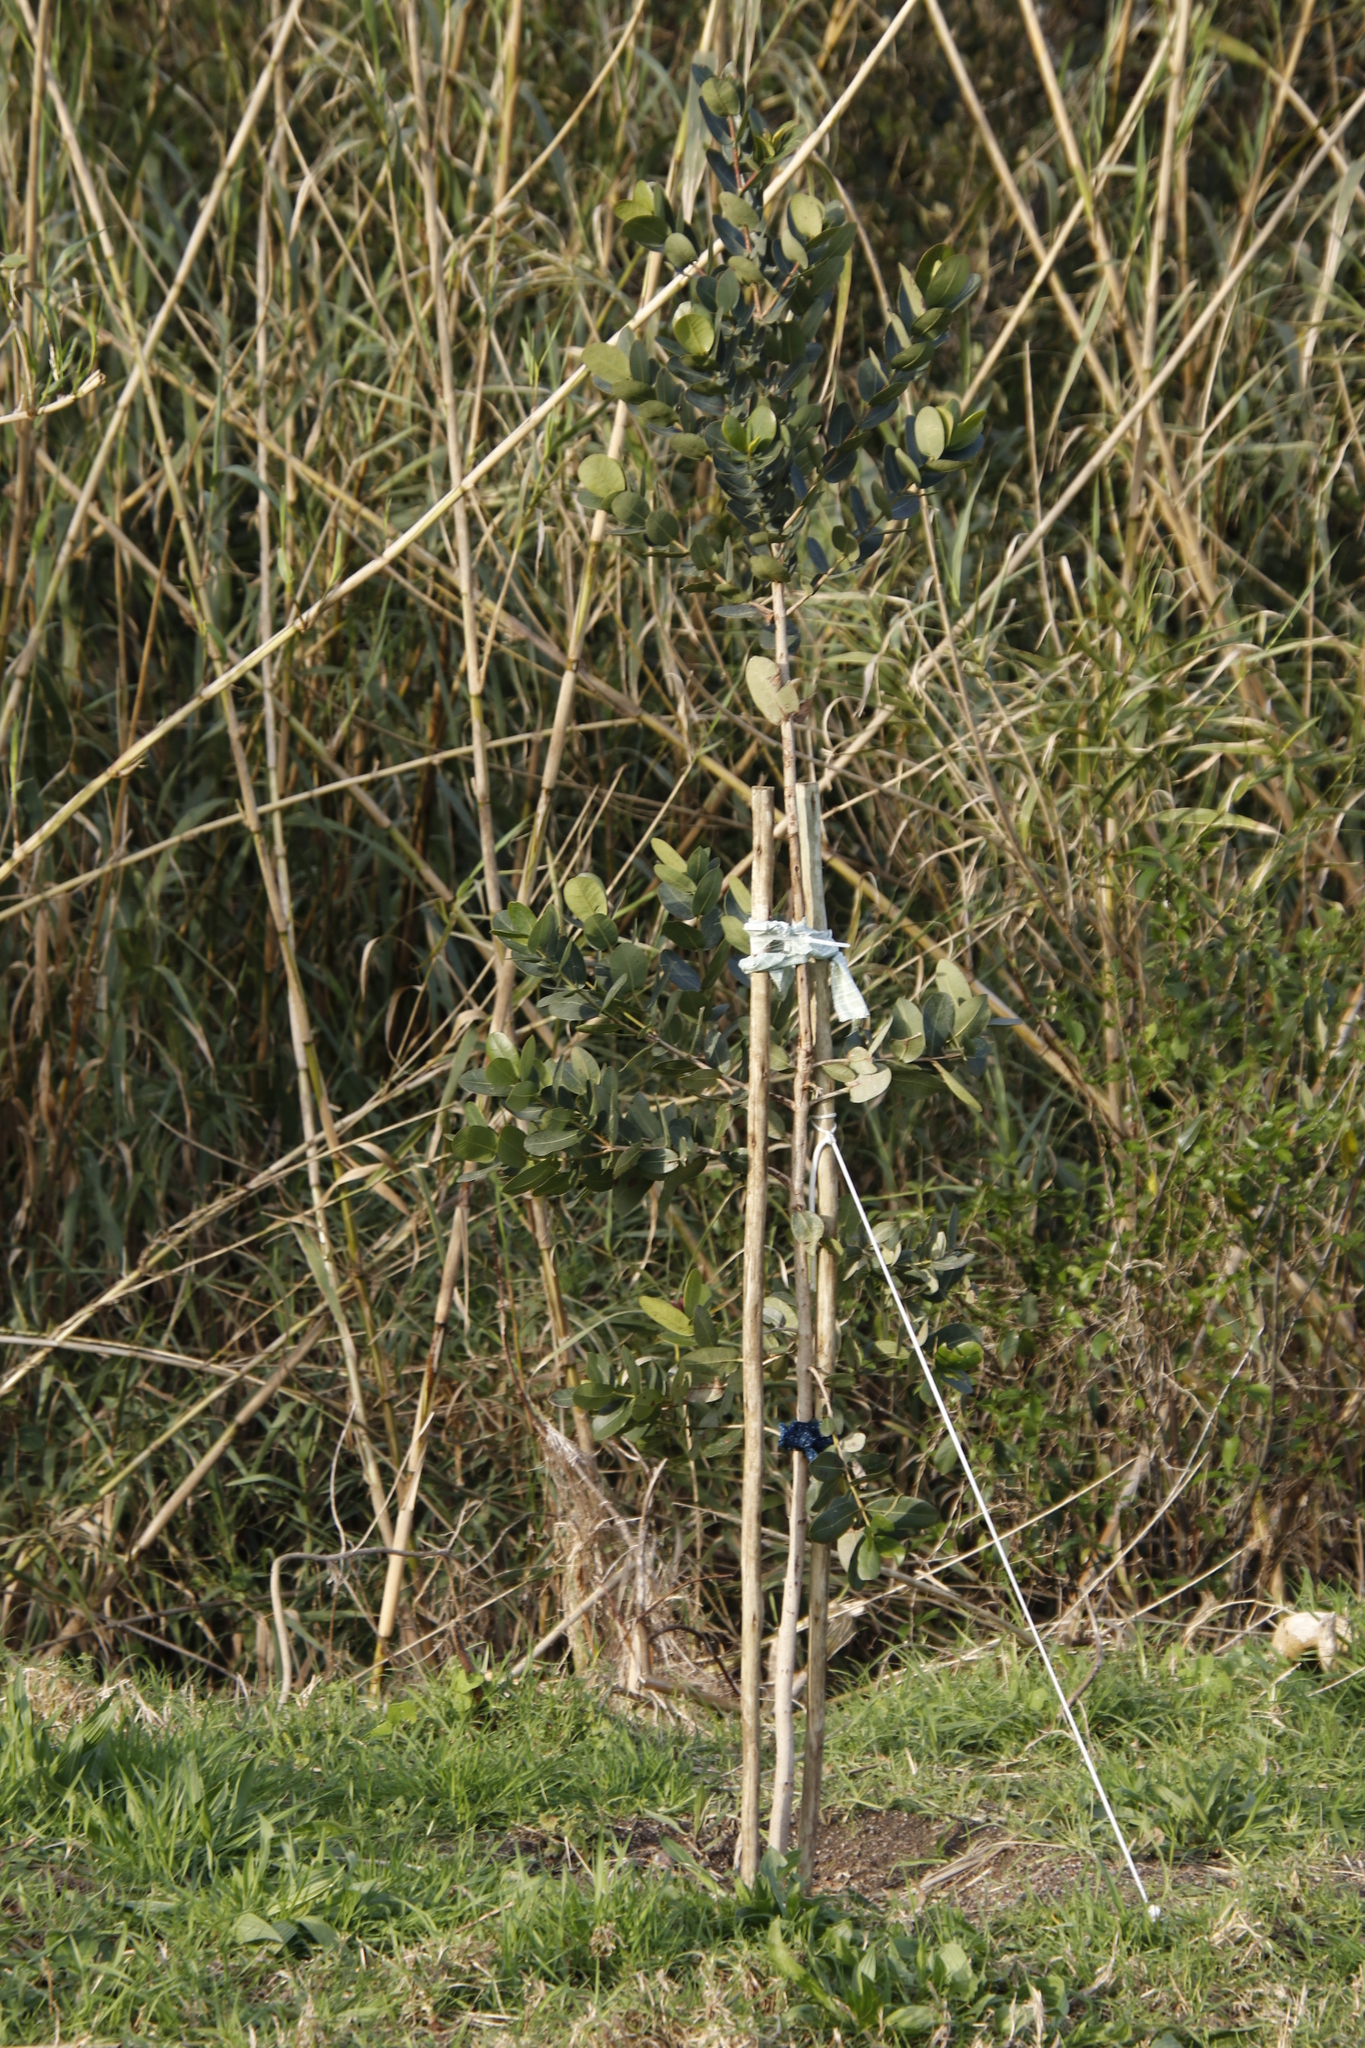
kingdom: Plantae
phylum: Tracheophyta
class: Magnoliopsida
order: Myrtales
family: Myrtaceae
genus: Syzygium
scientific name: Syzygium cordatum
